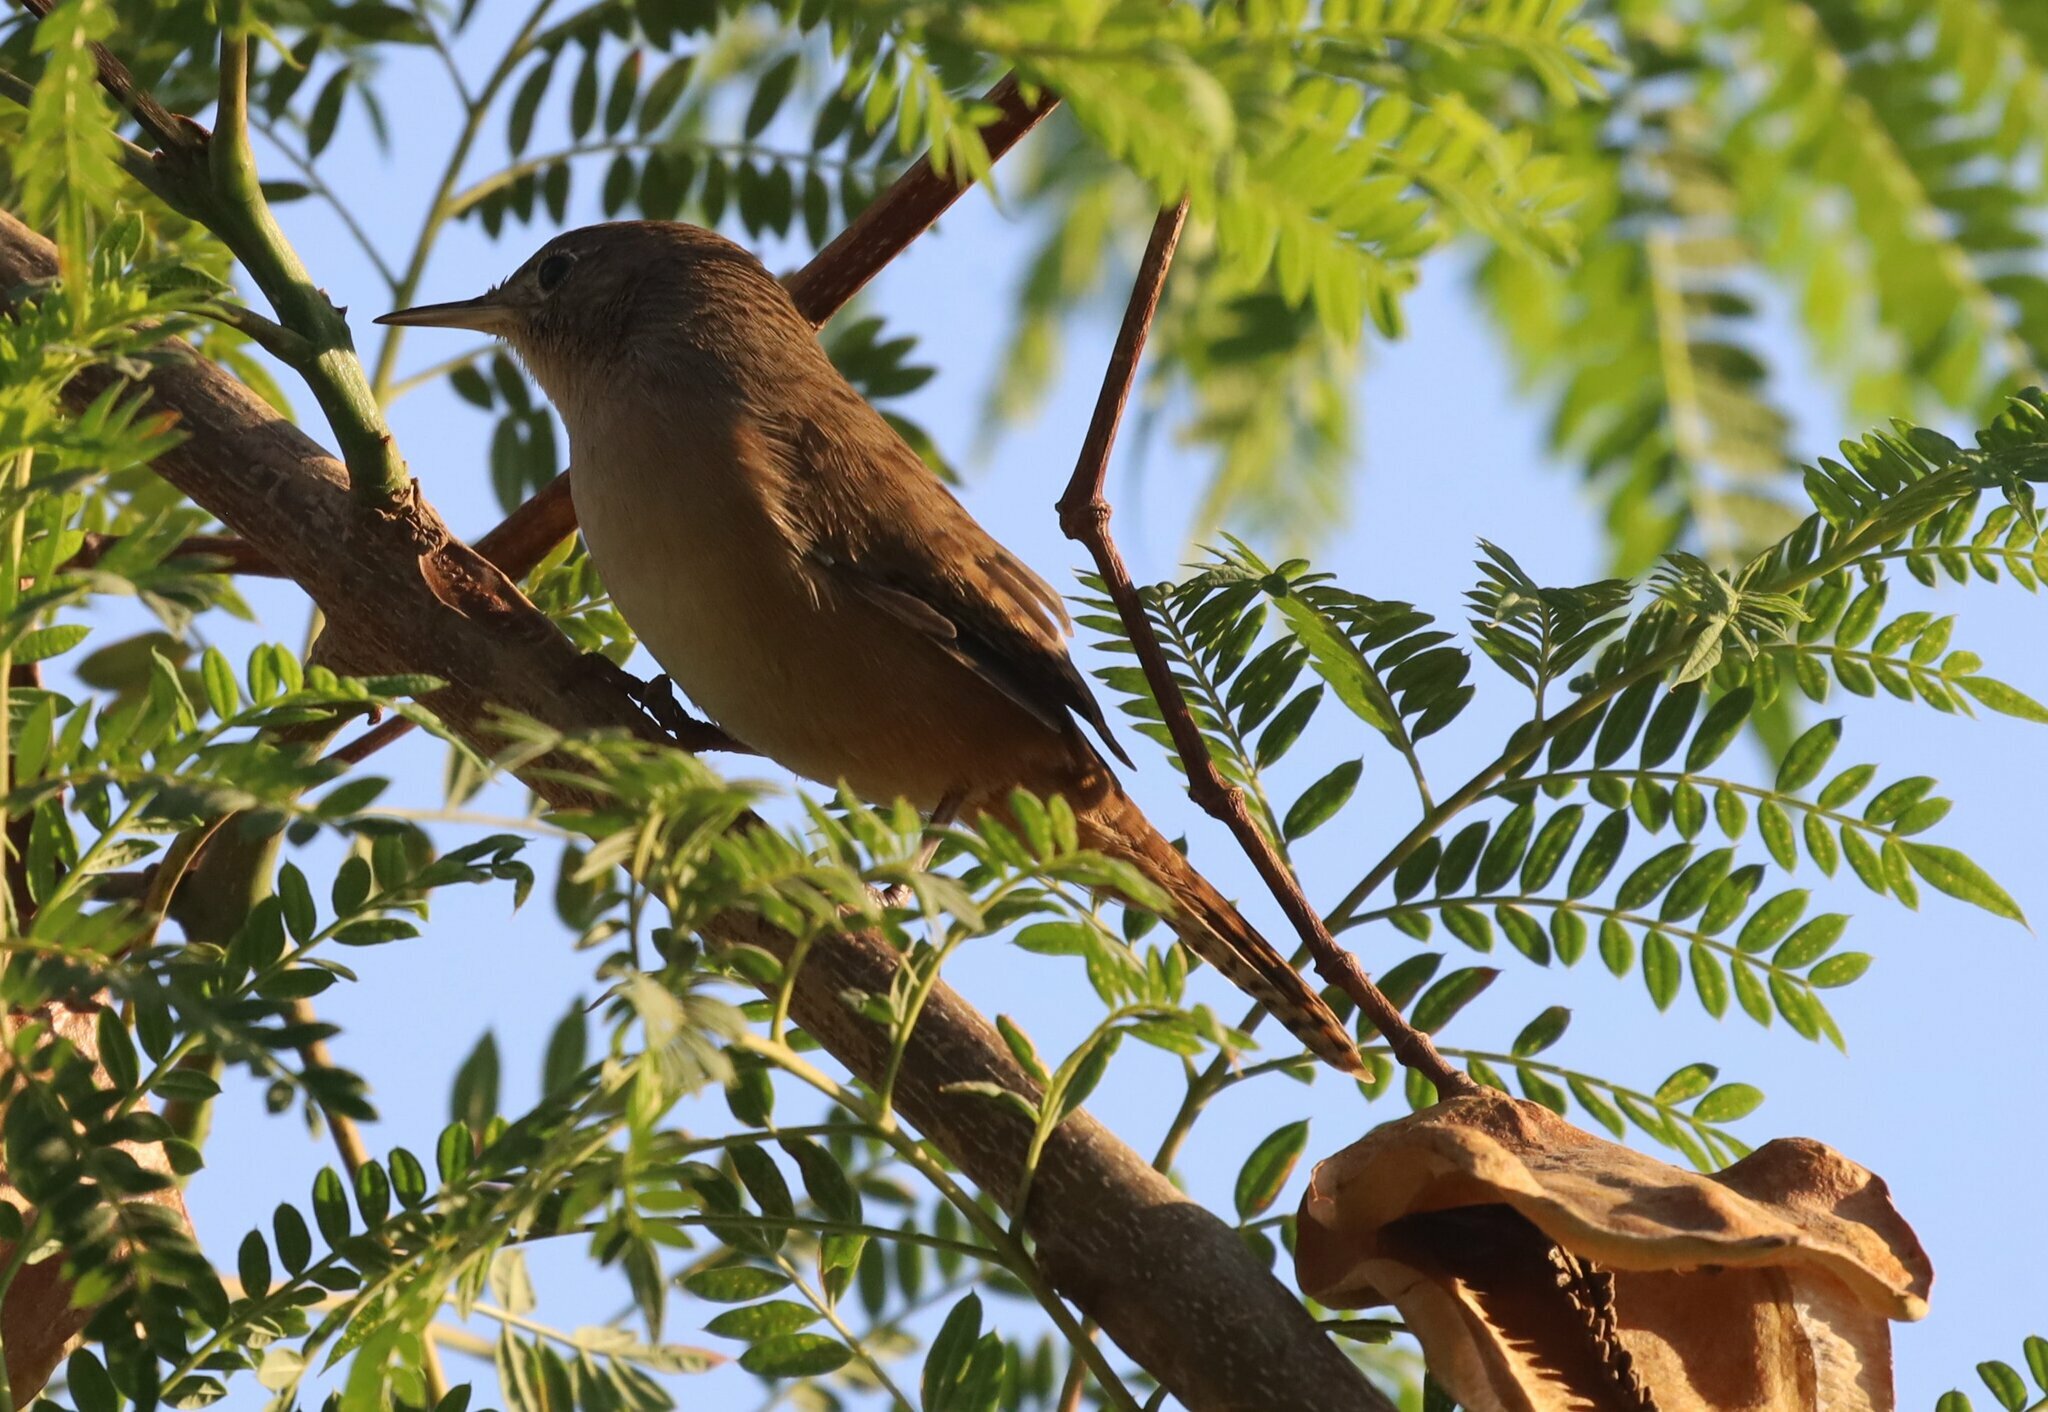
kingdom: Animalia
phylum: Chordata
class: Aves
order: Passeriformes
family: Troglodytidae
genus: Troglodytes
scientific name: Troglodytes aedon
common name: House wren
